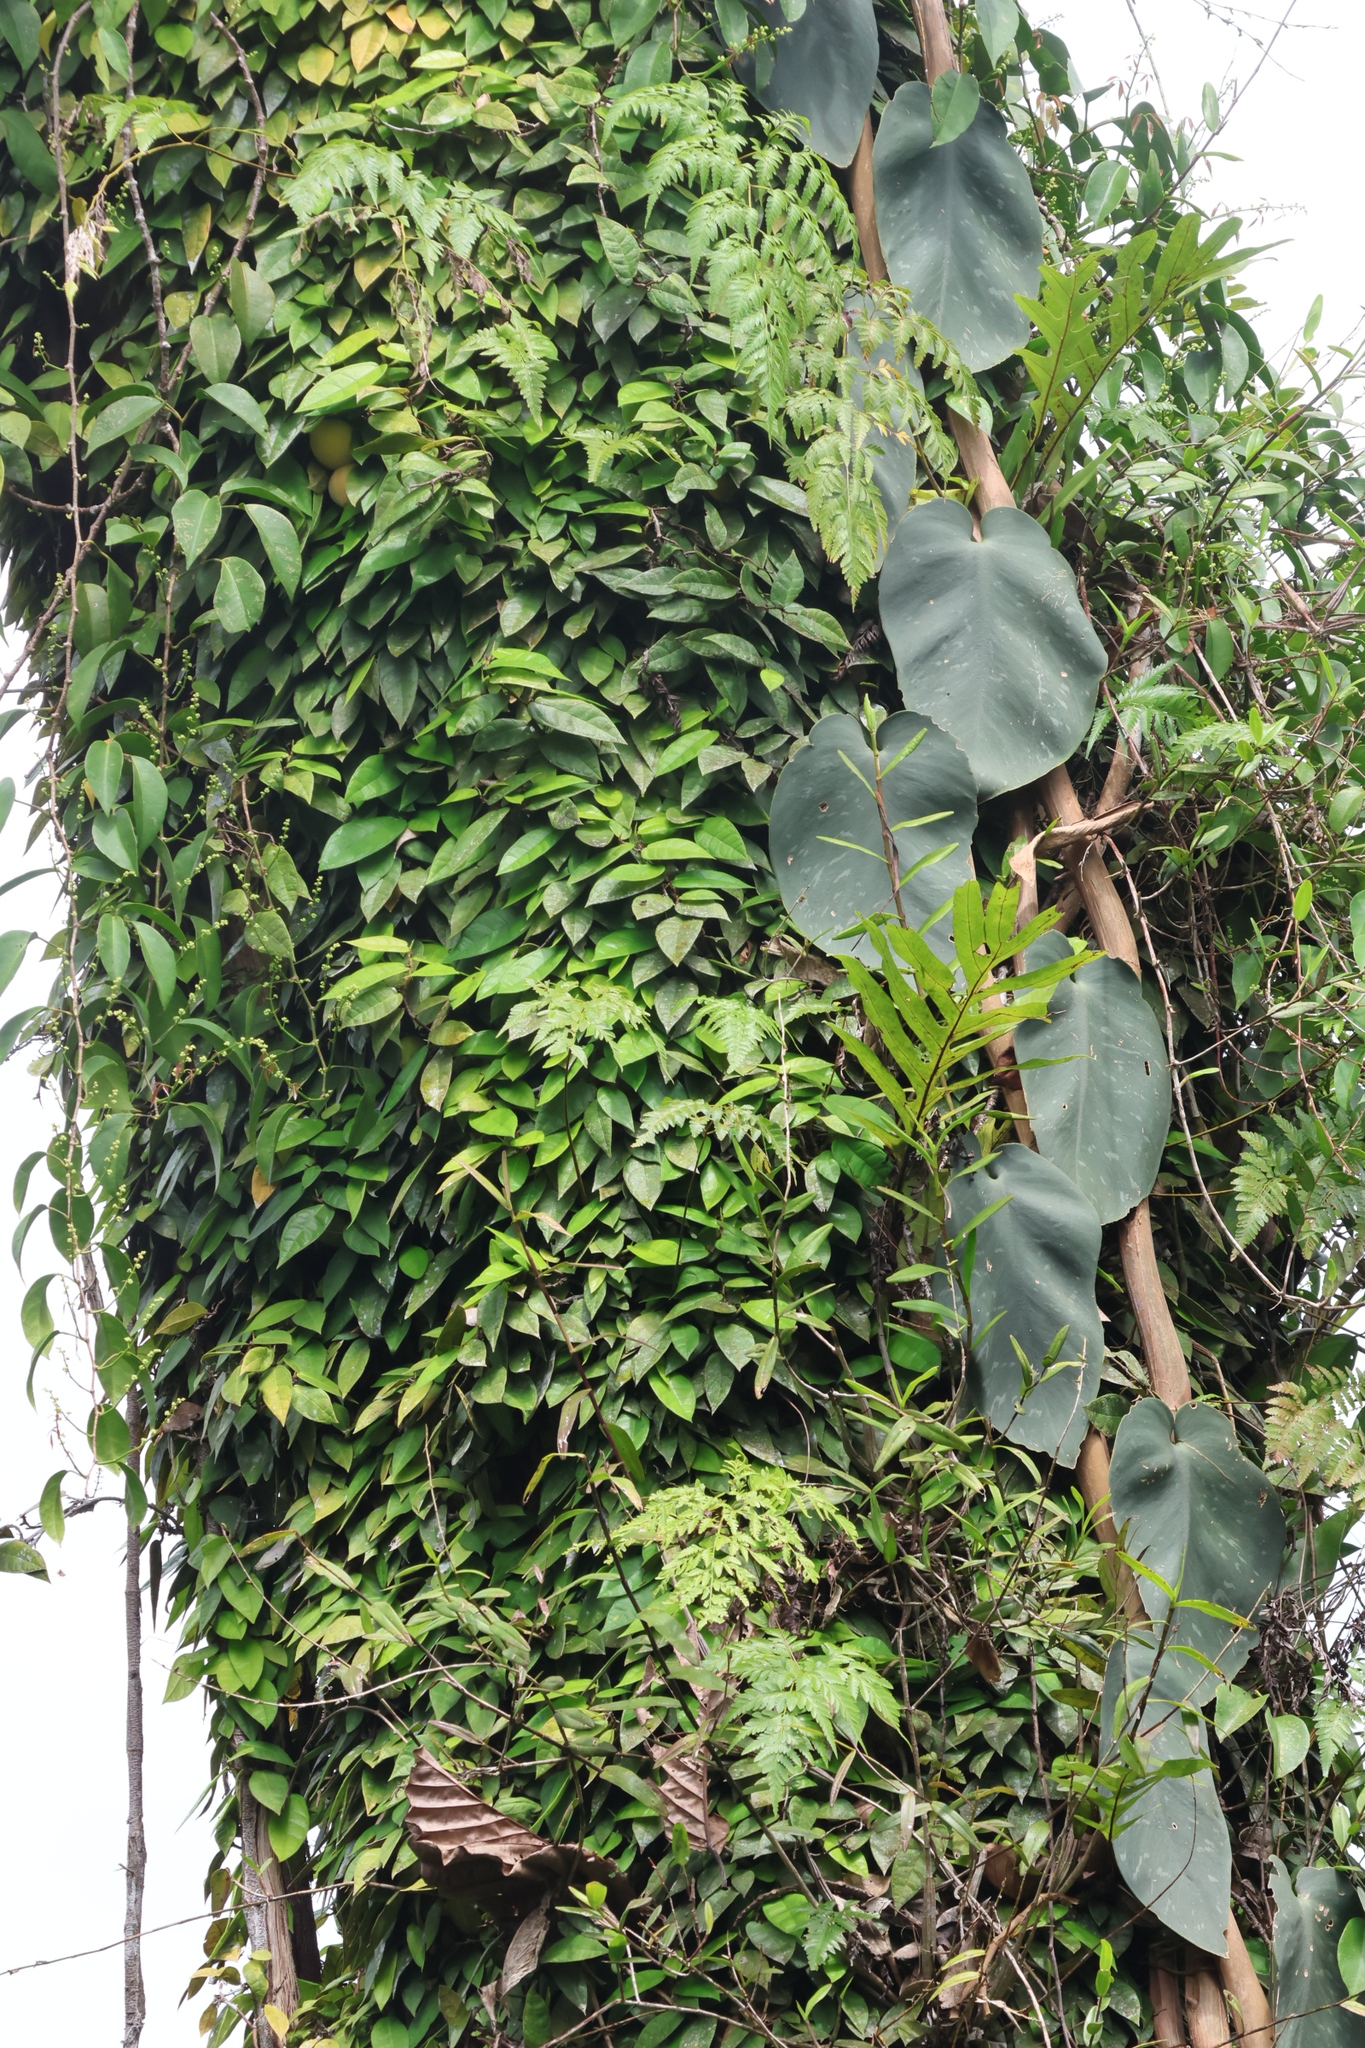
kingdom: Plantae
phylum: Tracheophyta
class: Magnoliopsida
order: Rosales
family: Moraceae
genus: Ficus
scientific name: Ficus barba-jovis
